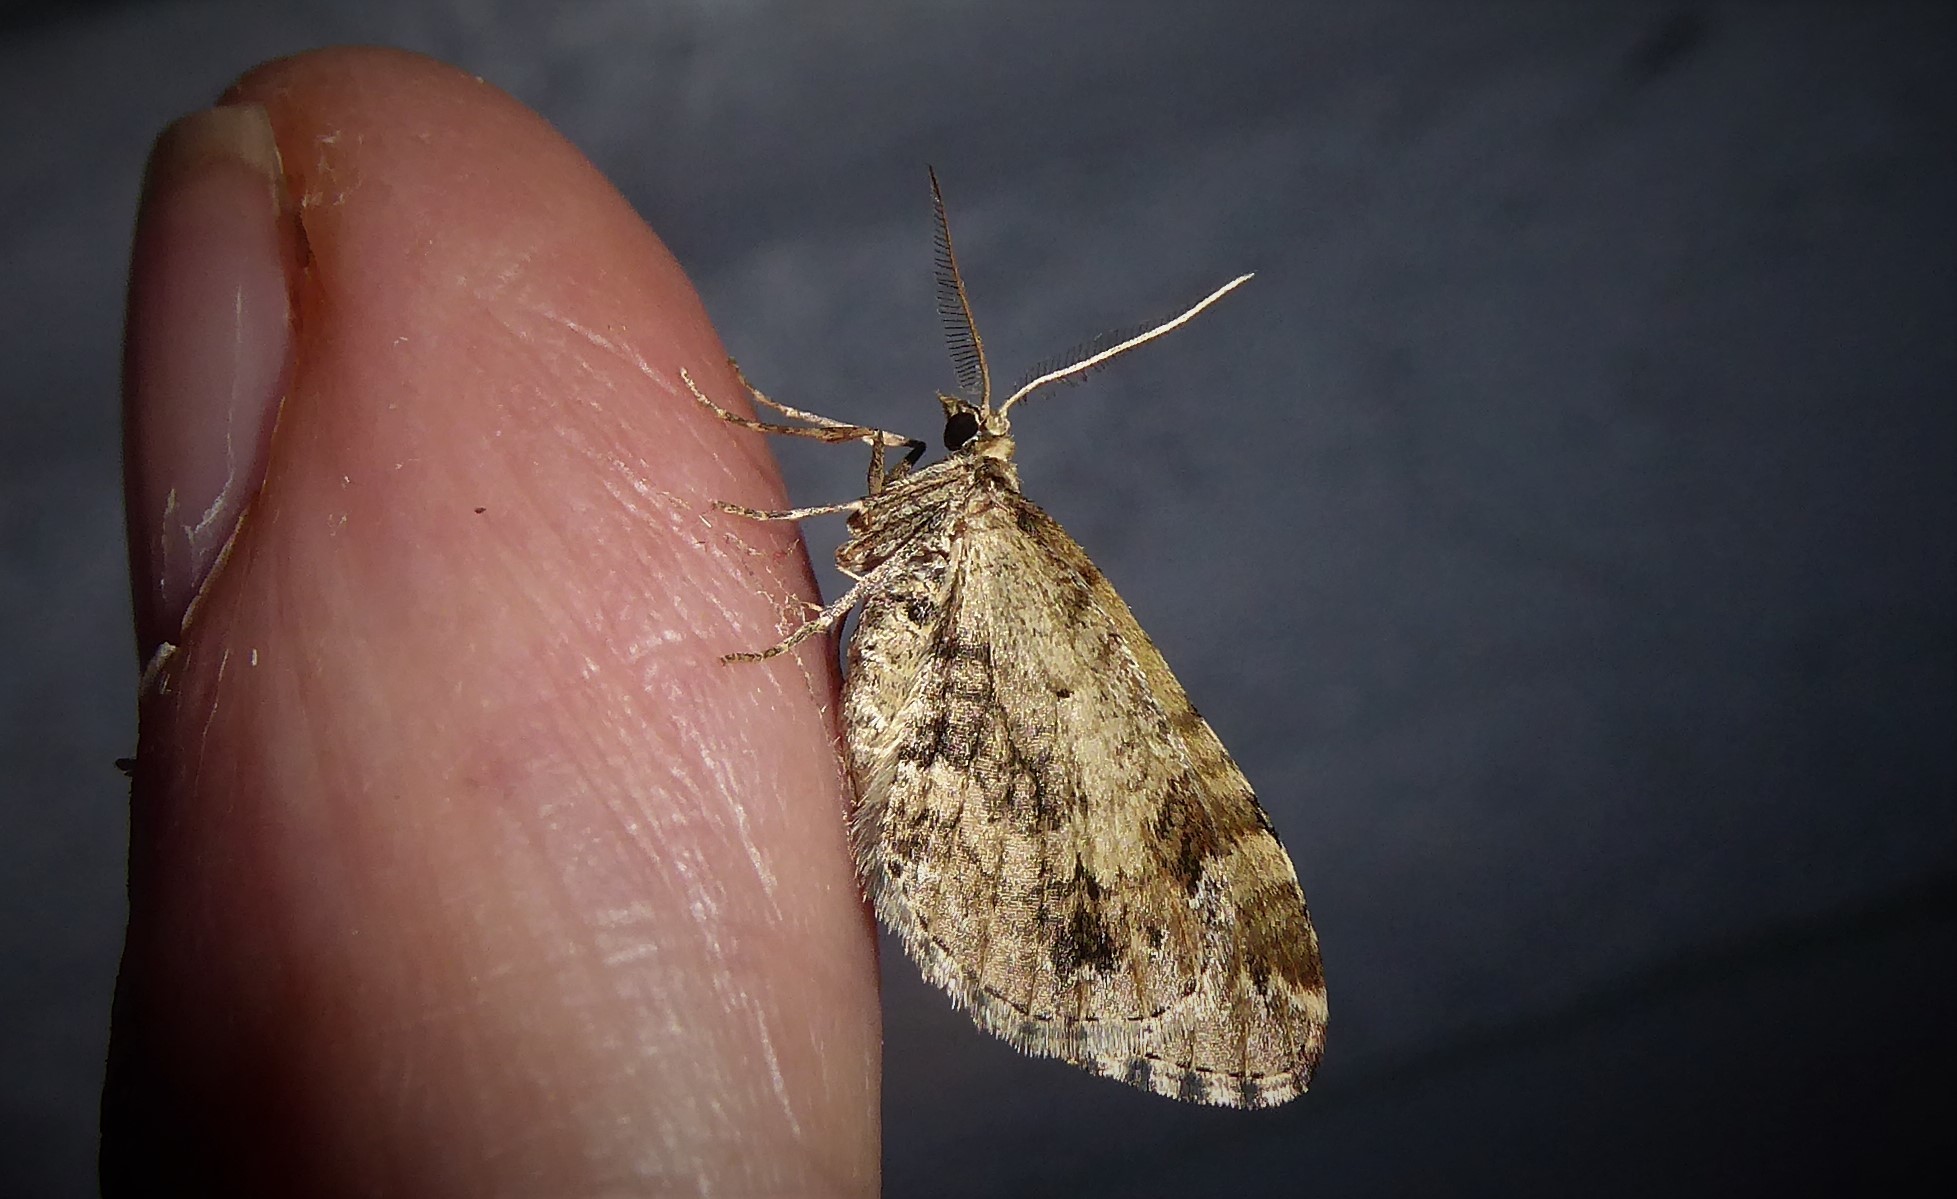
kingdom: Animalia
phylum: Arthropoda
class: Insecta
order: Lepidoptera
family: Geometridae
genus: Asaphodes
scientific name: Asaphodes aegrota
